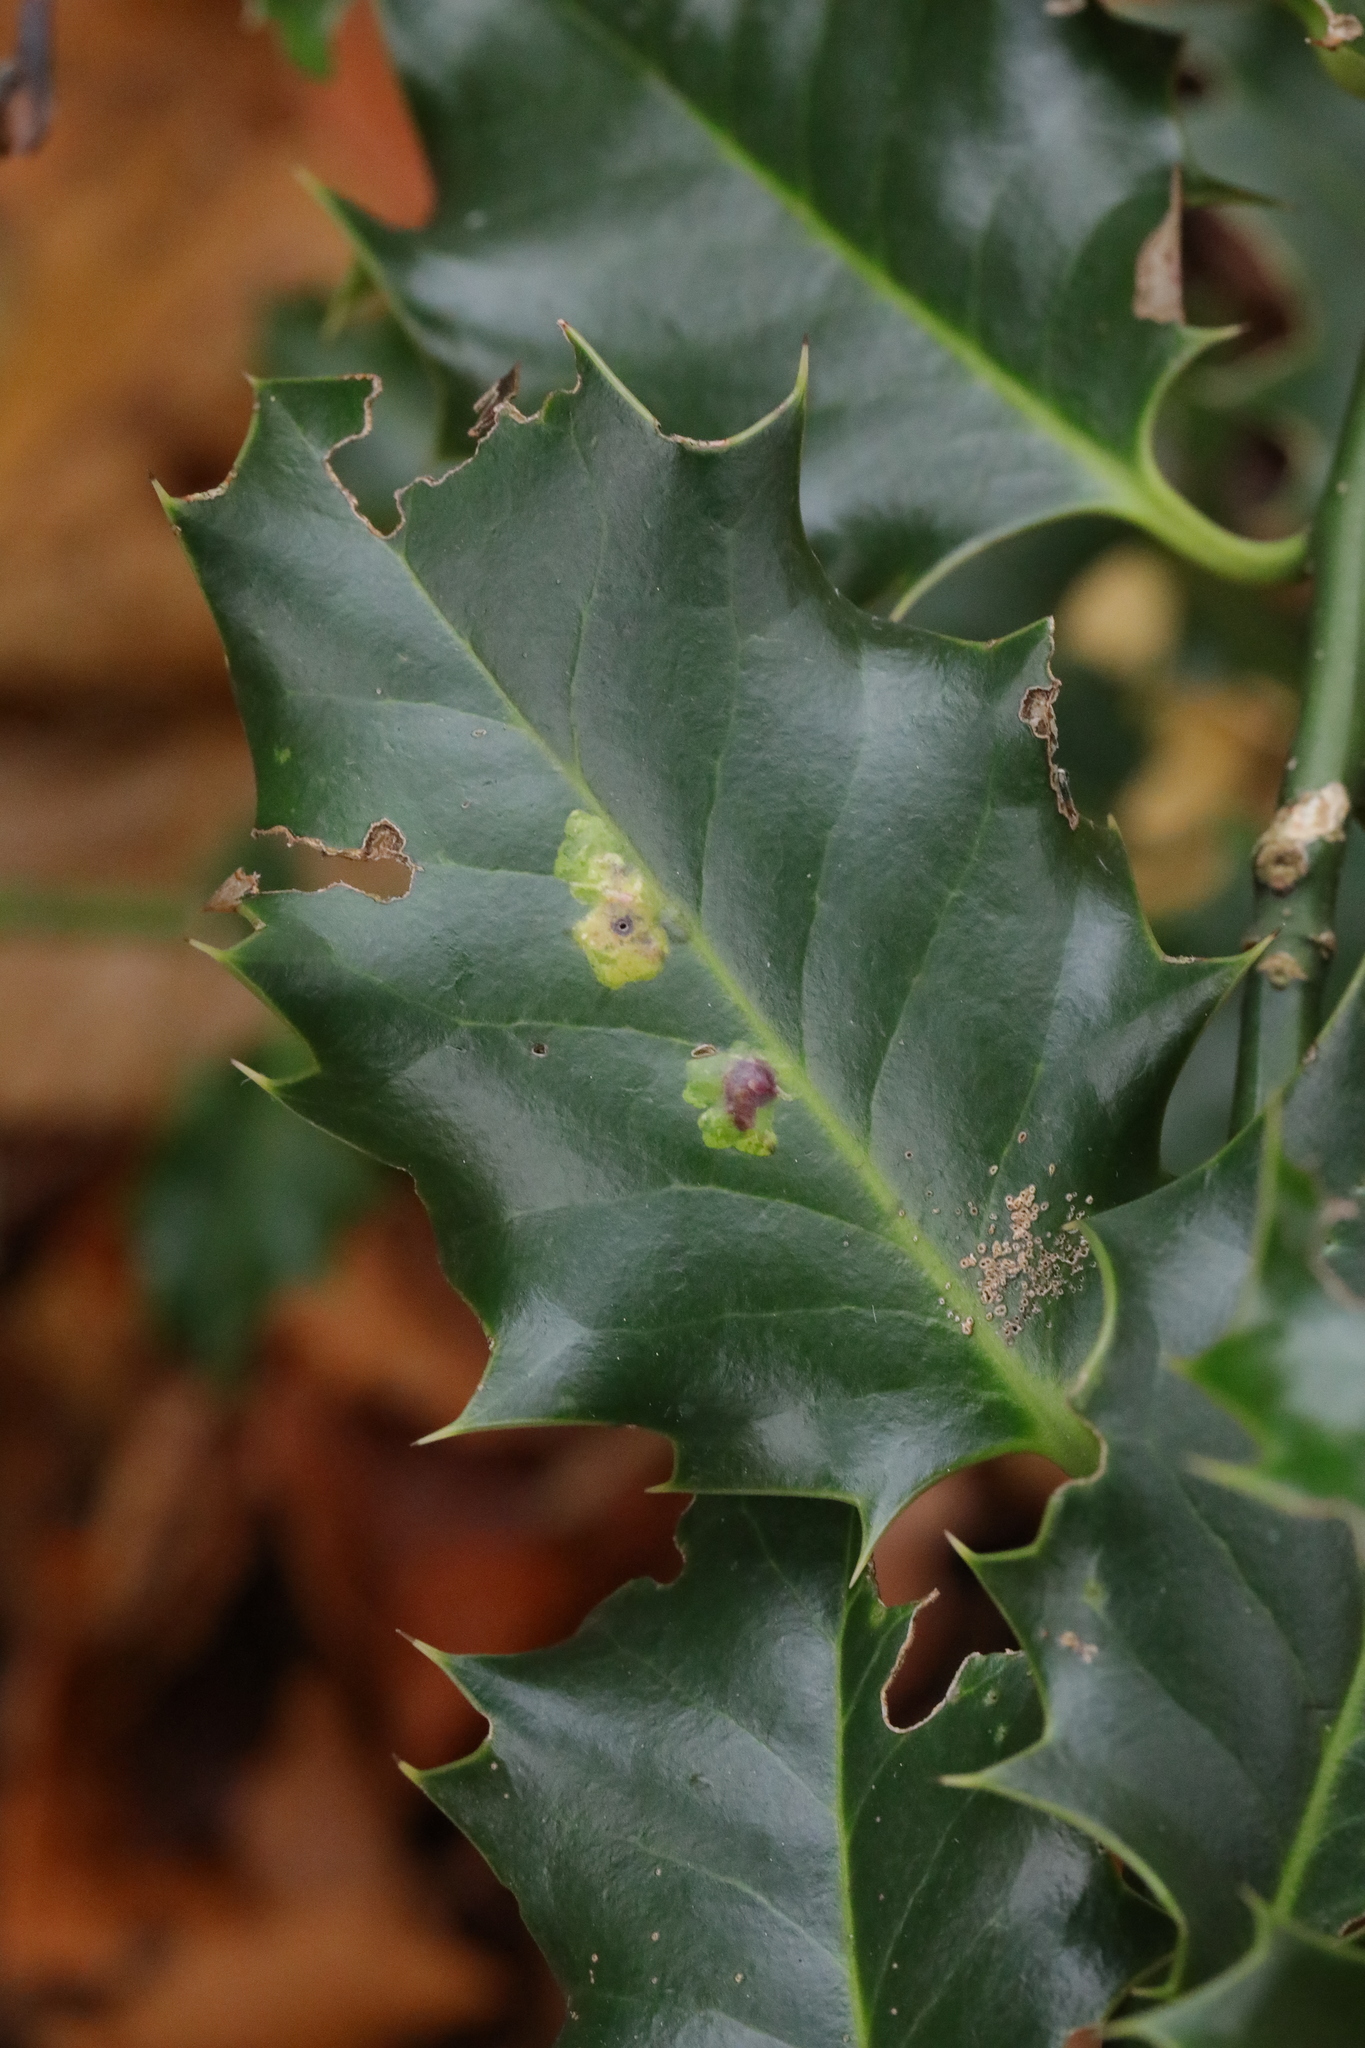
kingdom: Animalia
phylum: Arthropoda
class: Insecta
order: Diptera
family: Agromyzidae
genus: Phytomyza
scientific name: Phytomyza ilicis
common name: Holly leafminer
